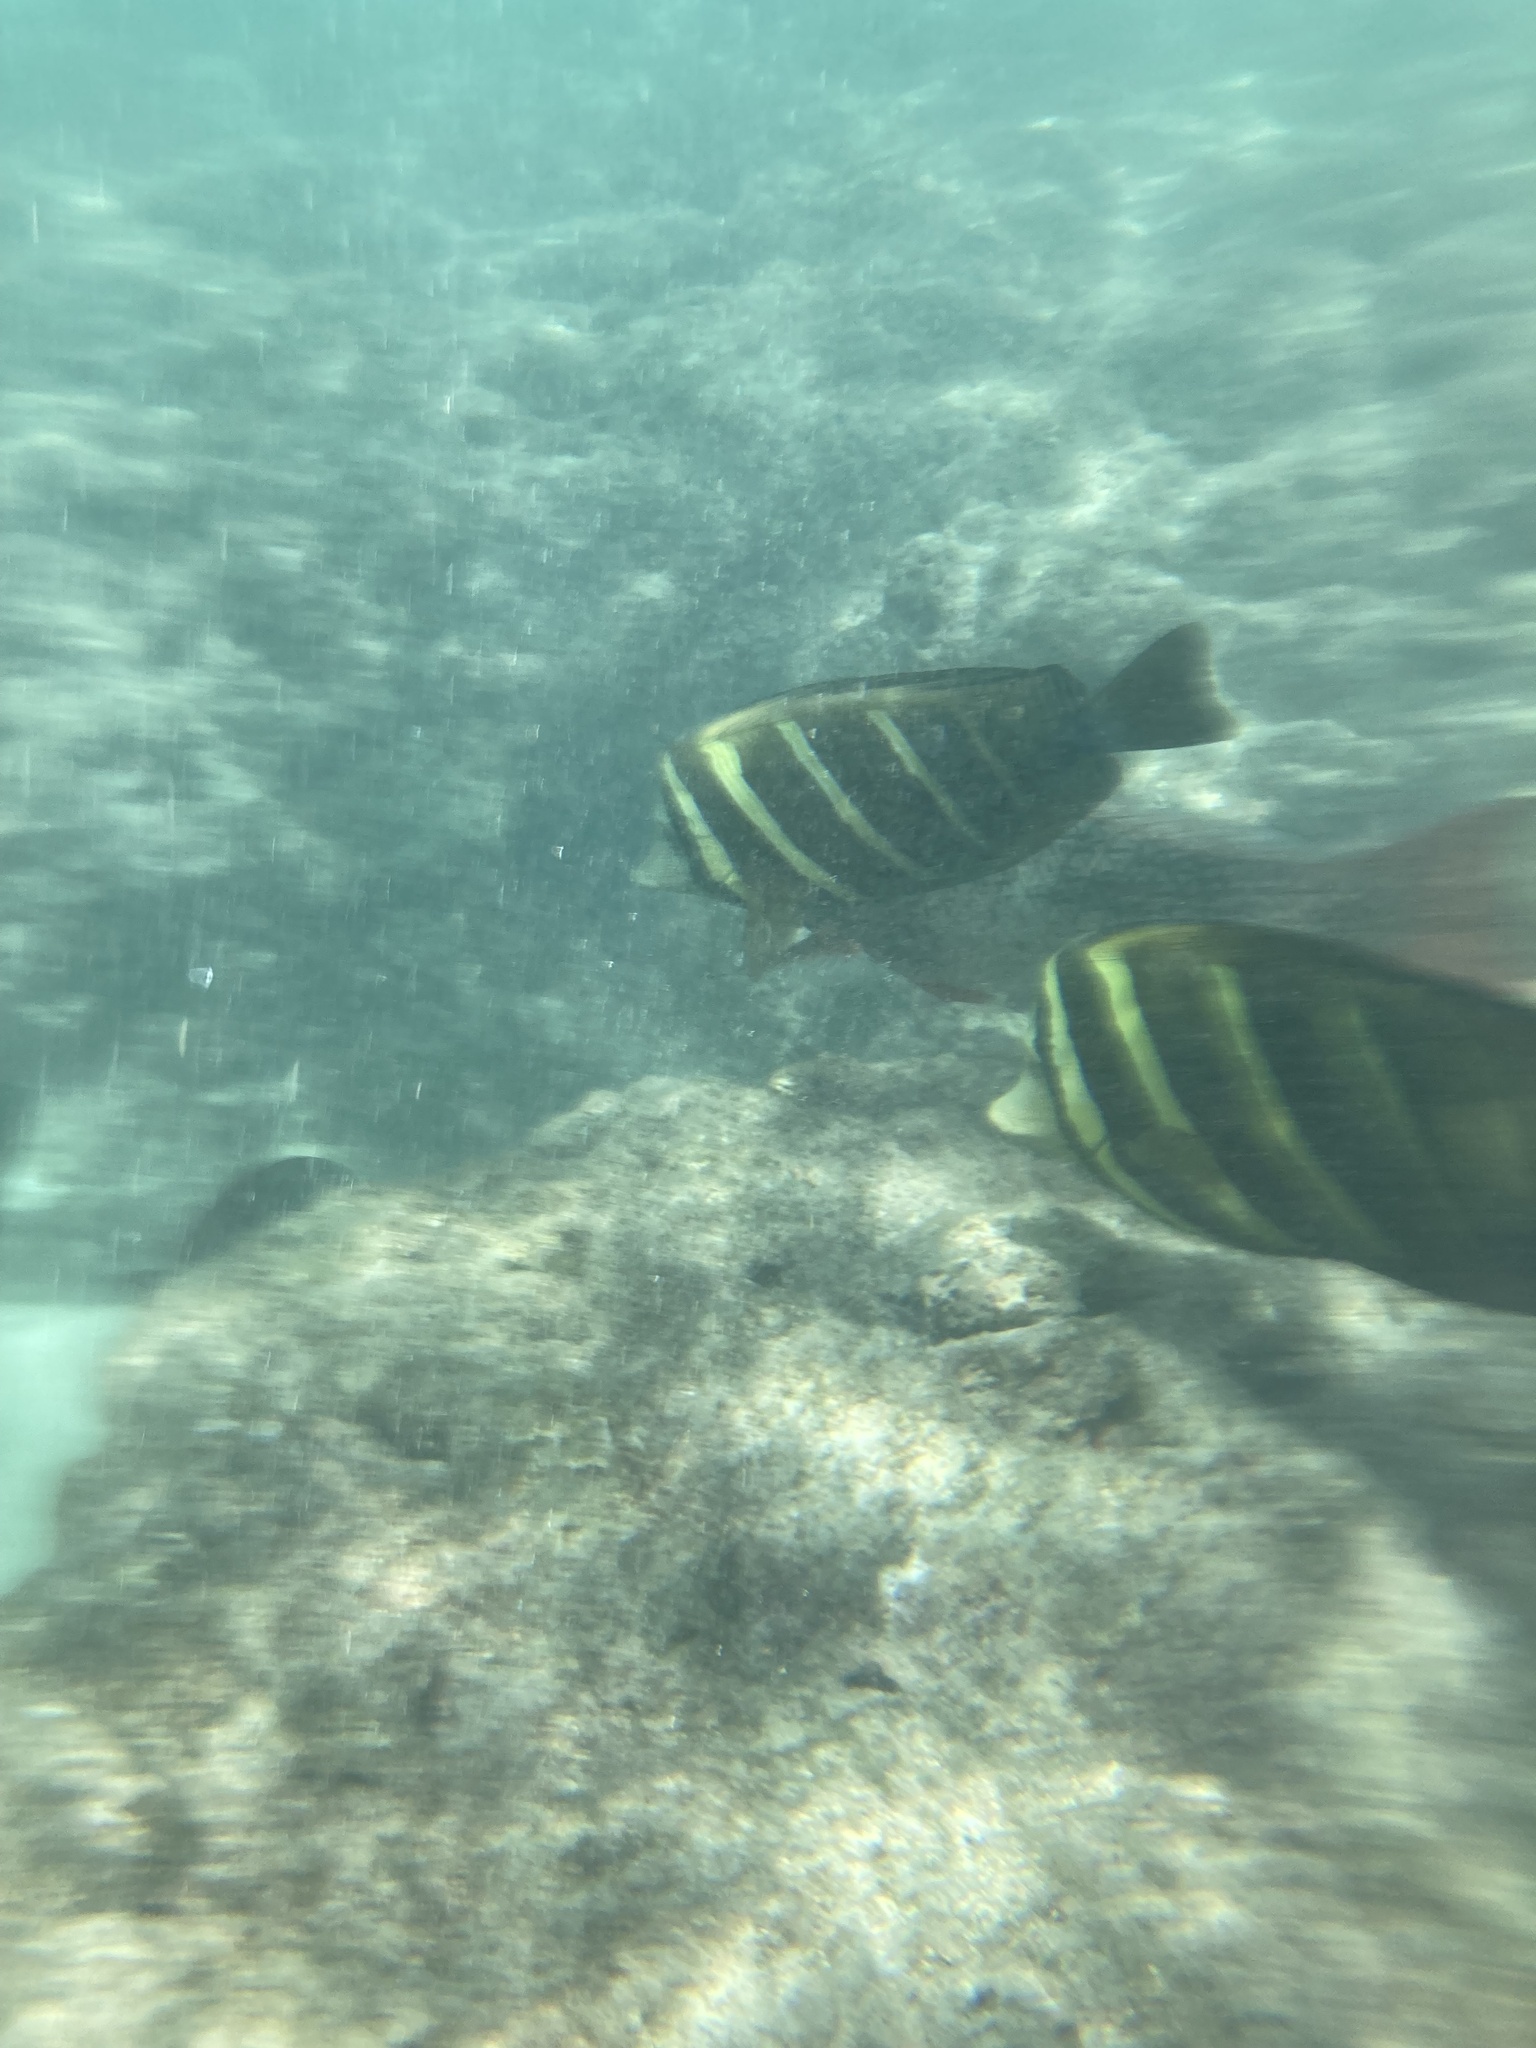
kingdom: Animalia
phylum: Chordata
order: Perciformes
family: Acanthuridae
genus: Zebrasoma
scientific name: Zebrasoma veliferum
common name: Sailfin surgeonfish
